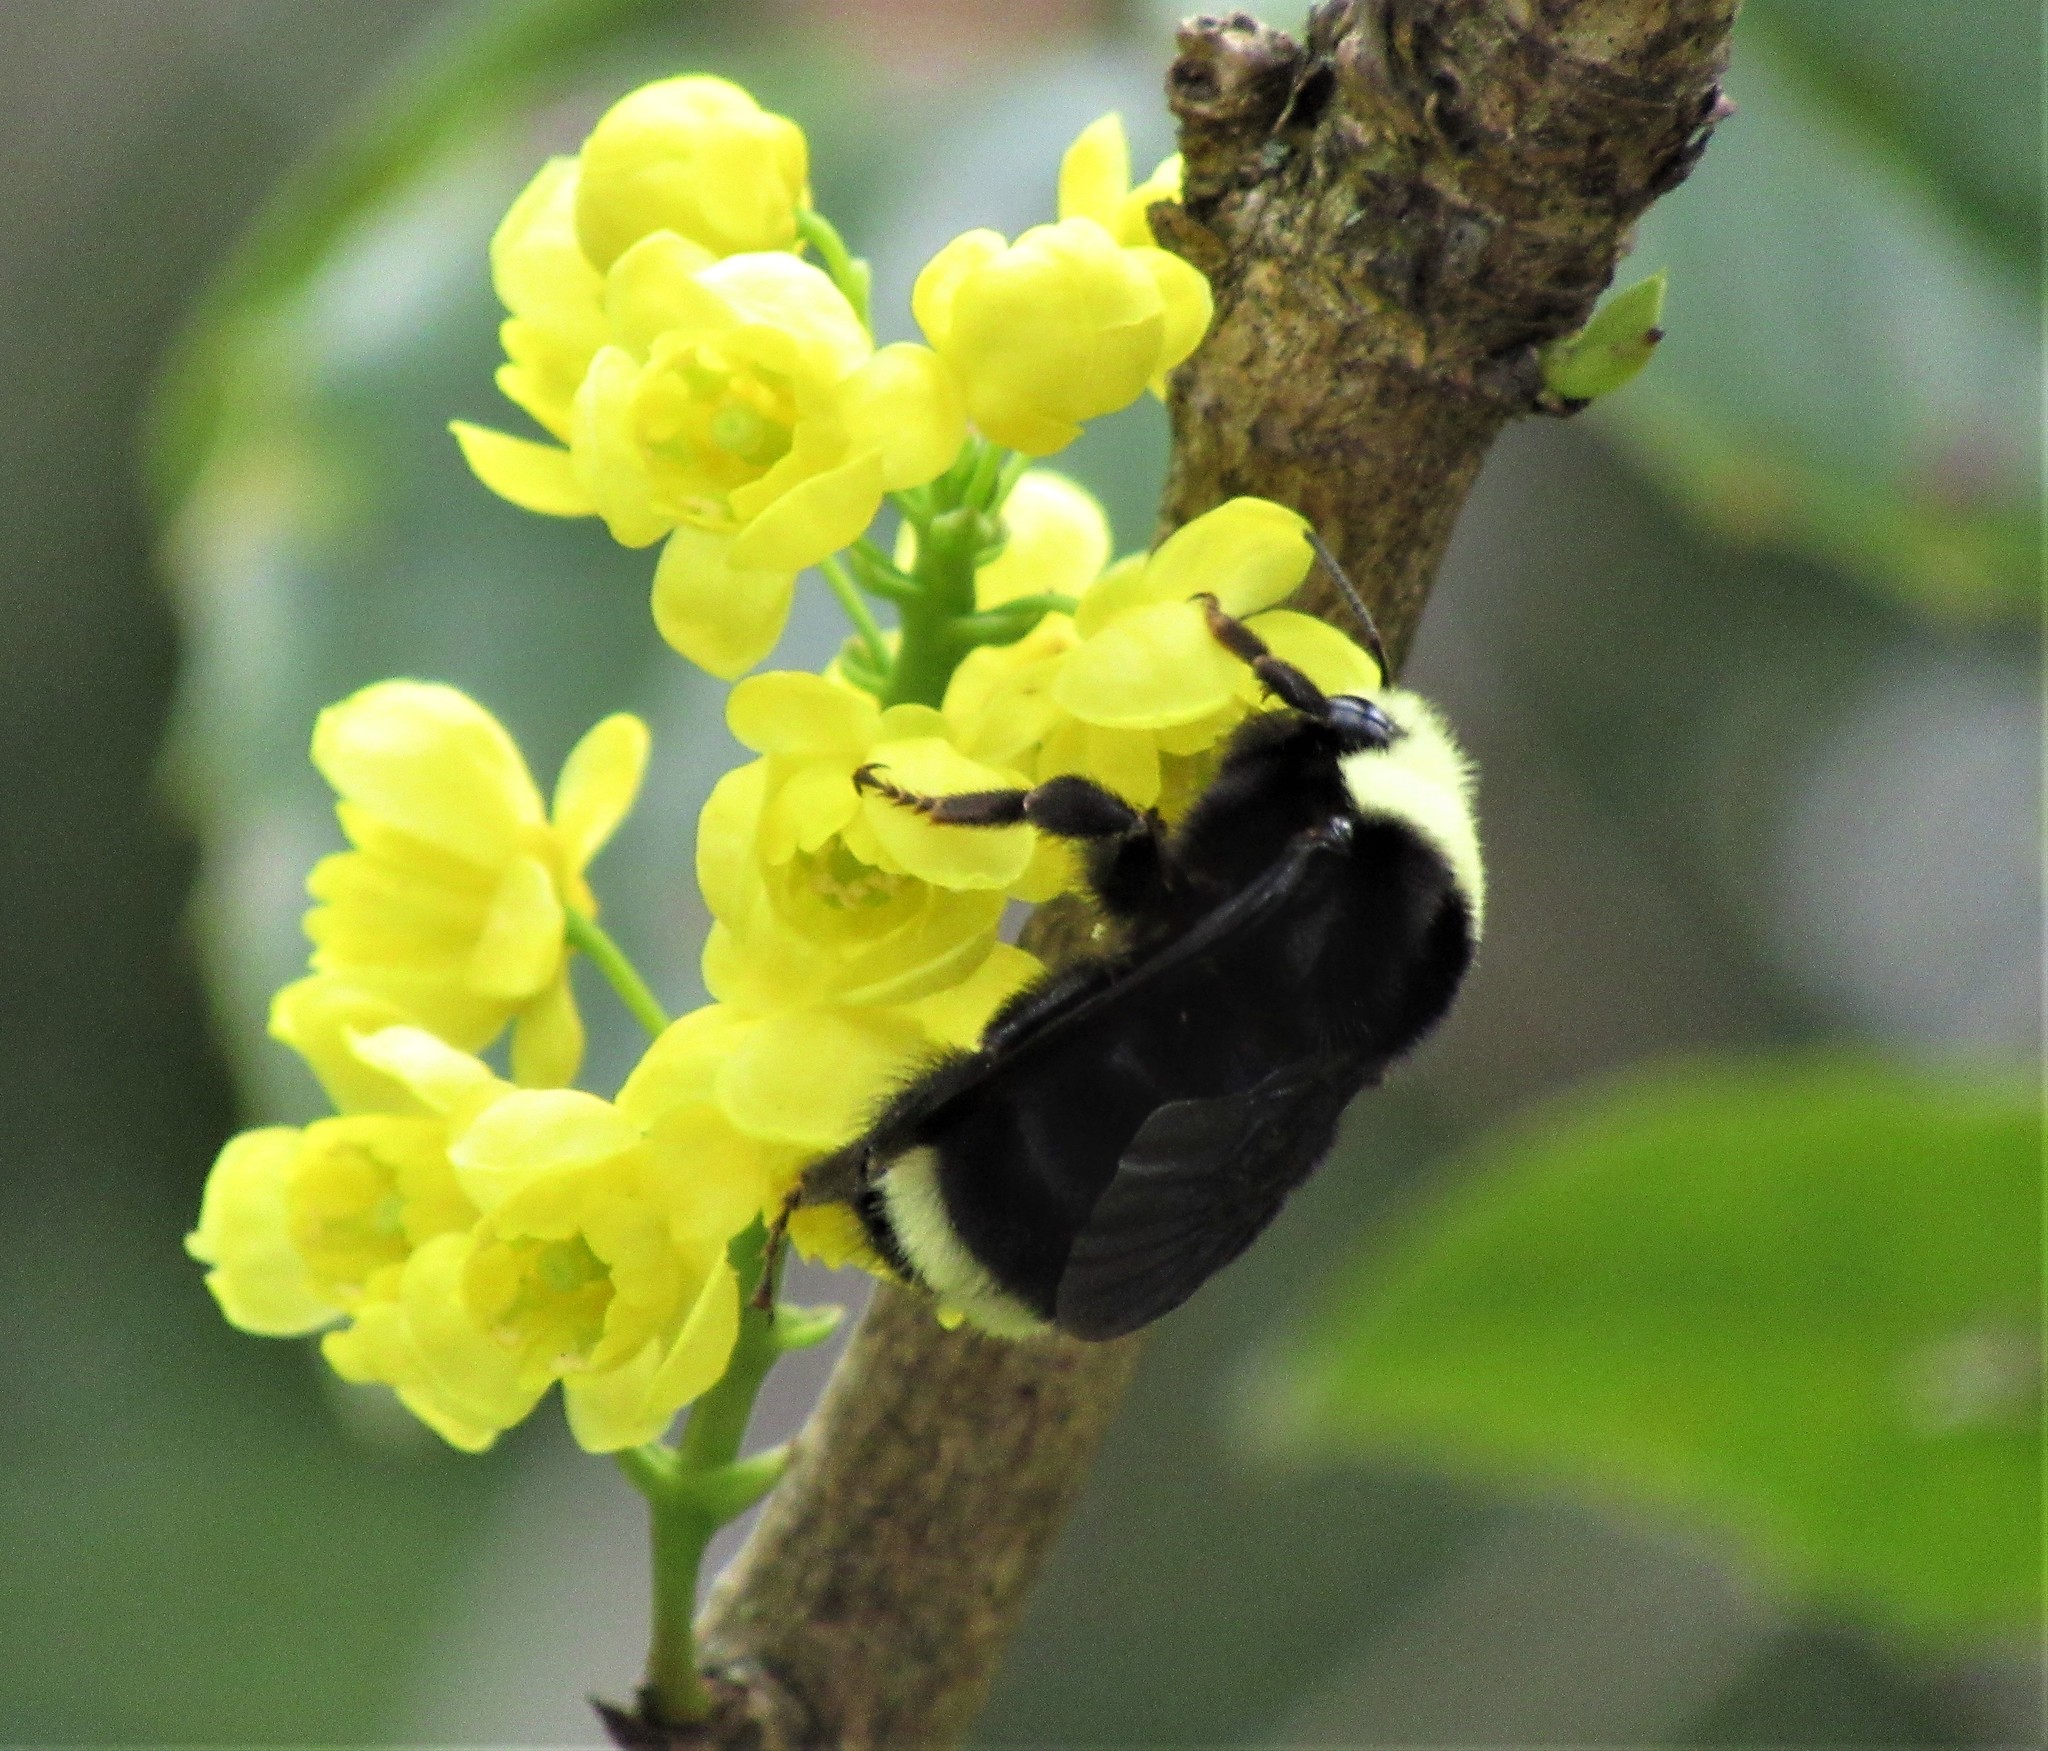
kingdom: Animalia
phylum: Arthropoda
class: Insecta
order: Hymenoptera
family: Apidae
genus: Bombus
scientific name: Bombus vosnesenskii
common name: Vosnesensky bumble bee
